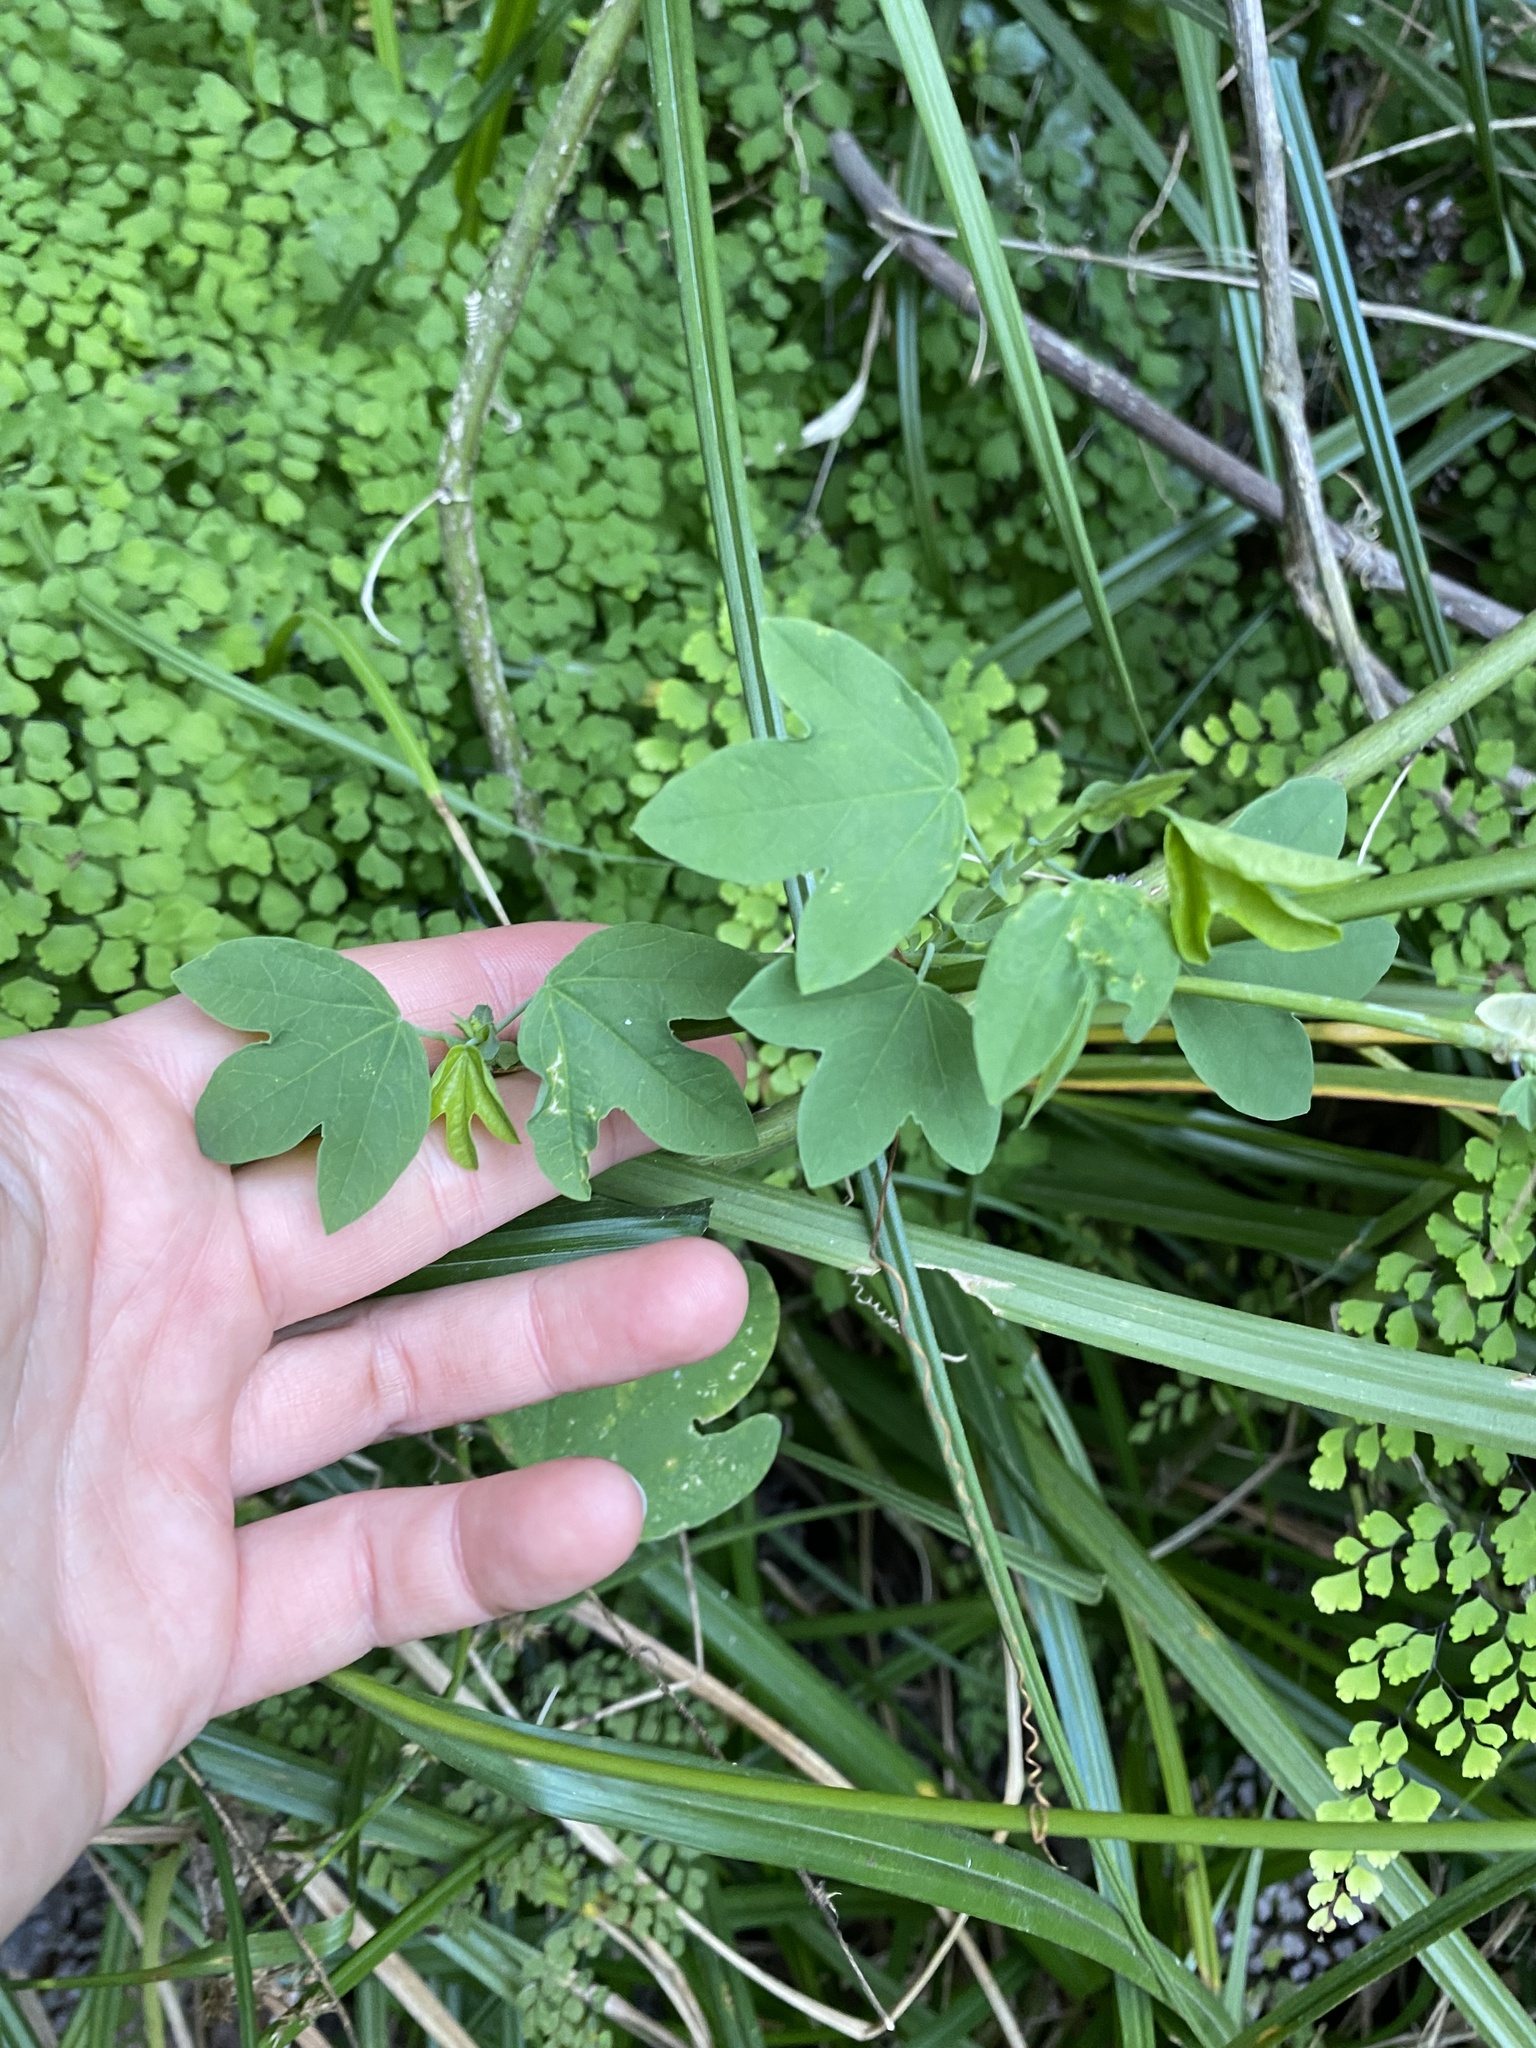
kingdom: Plantae
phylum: Tracheophyta
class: Magnoliopsida
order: Malpighiales
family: Passifloraceae
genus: Passiflora
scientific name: Passiflora subpeltata
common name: White passionflower
